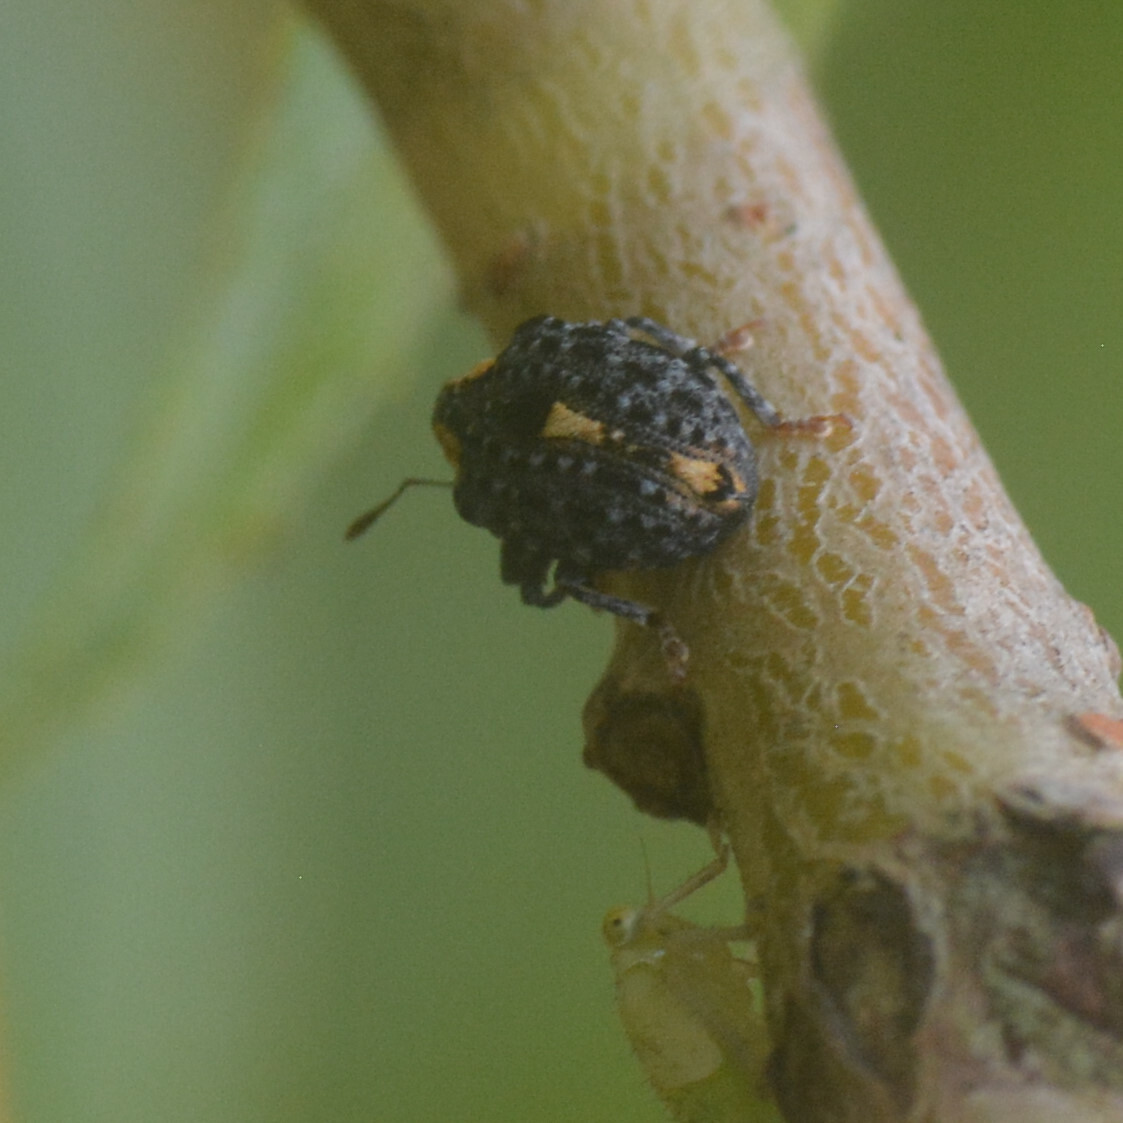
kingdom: Animalia
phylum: Arthropoda
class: Insecta
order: Coleoptera
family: Curculionidae
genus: Cionus
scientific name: Cionus tuberculosus
